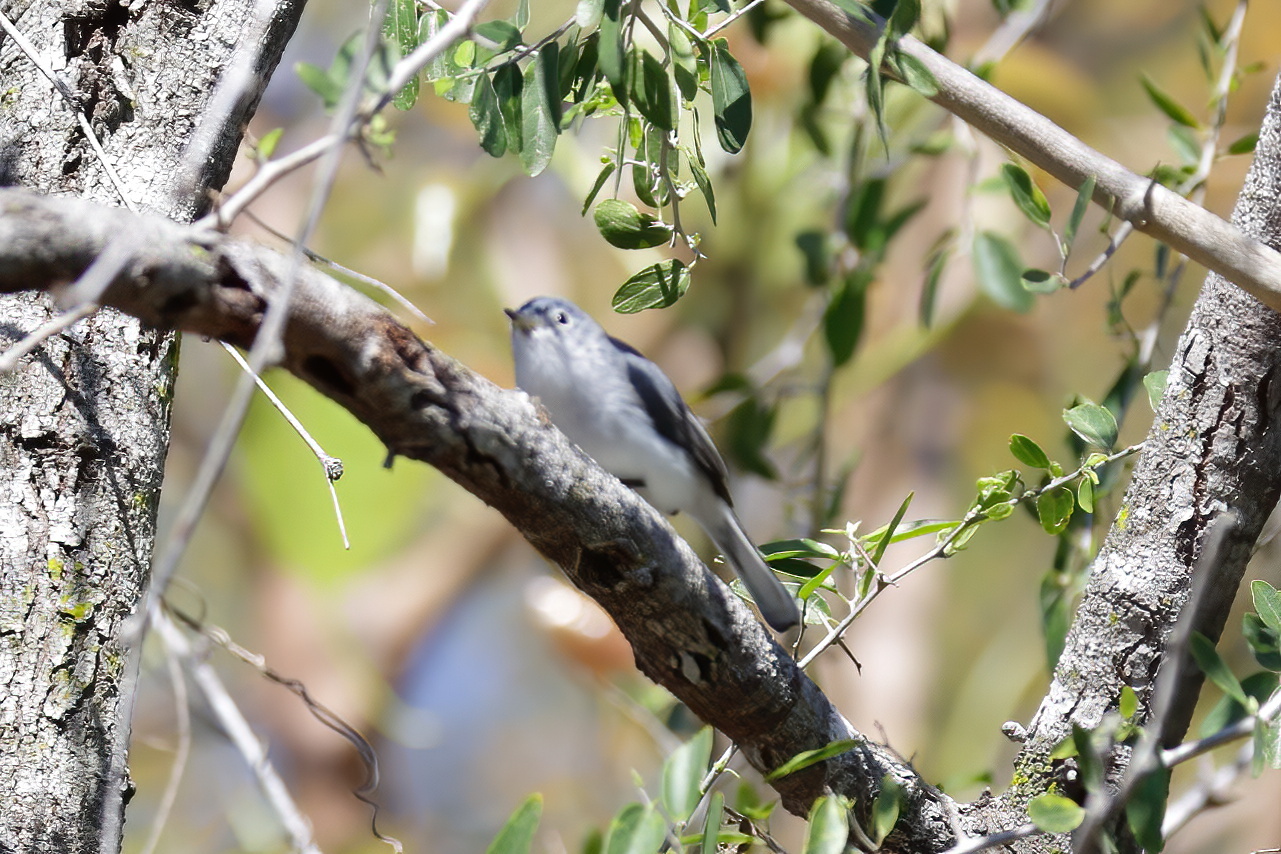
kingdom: Animalia
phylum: Chordata
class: Aves
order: Passeriformes
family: Polioptilidae
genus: Polioptila
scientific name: Polioptila caerulea
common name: Blue-gray gnatcatcher
